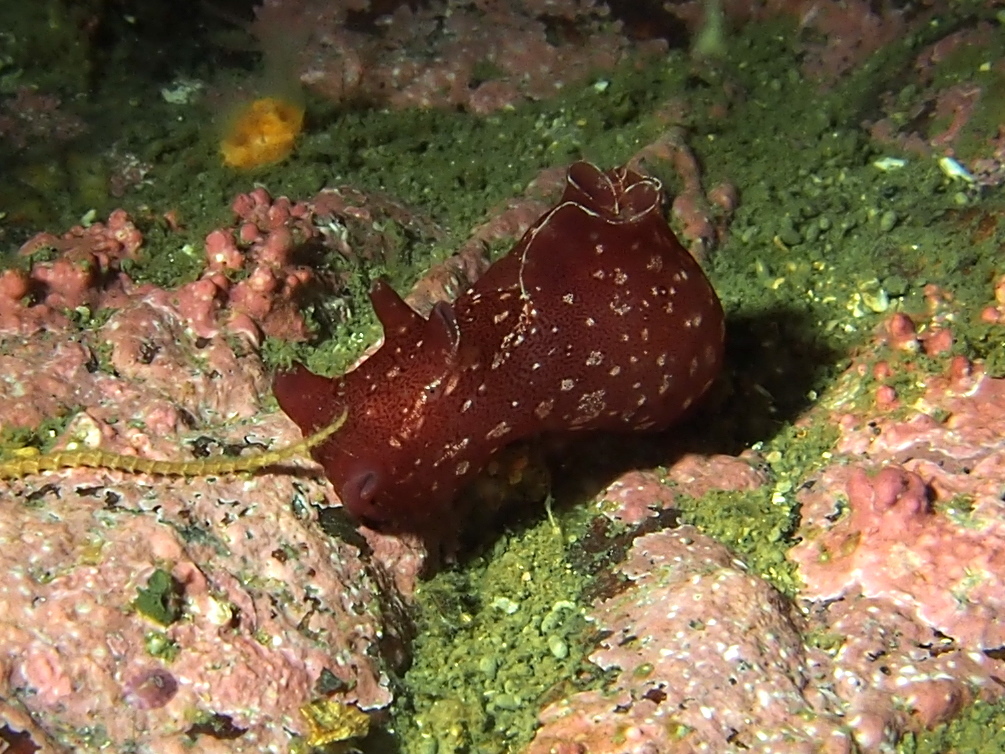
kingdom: Animalia
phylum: Mollusca
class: Gastropoda
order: Aplysiida
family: Aplysiidae
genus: Aplysia
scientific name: Aplysia punctata
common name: Common sea hare
